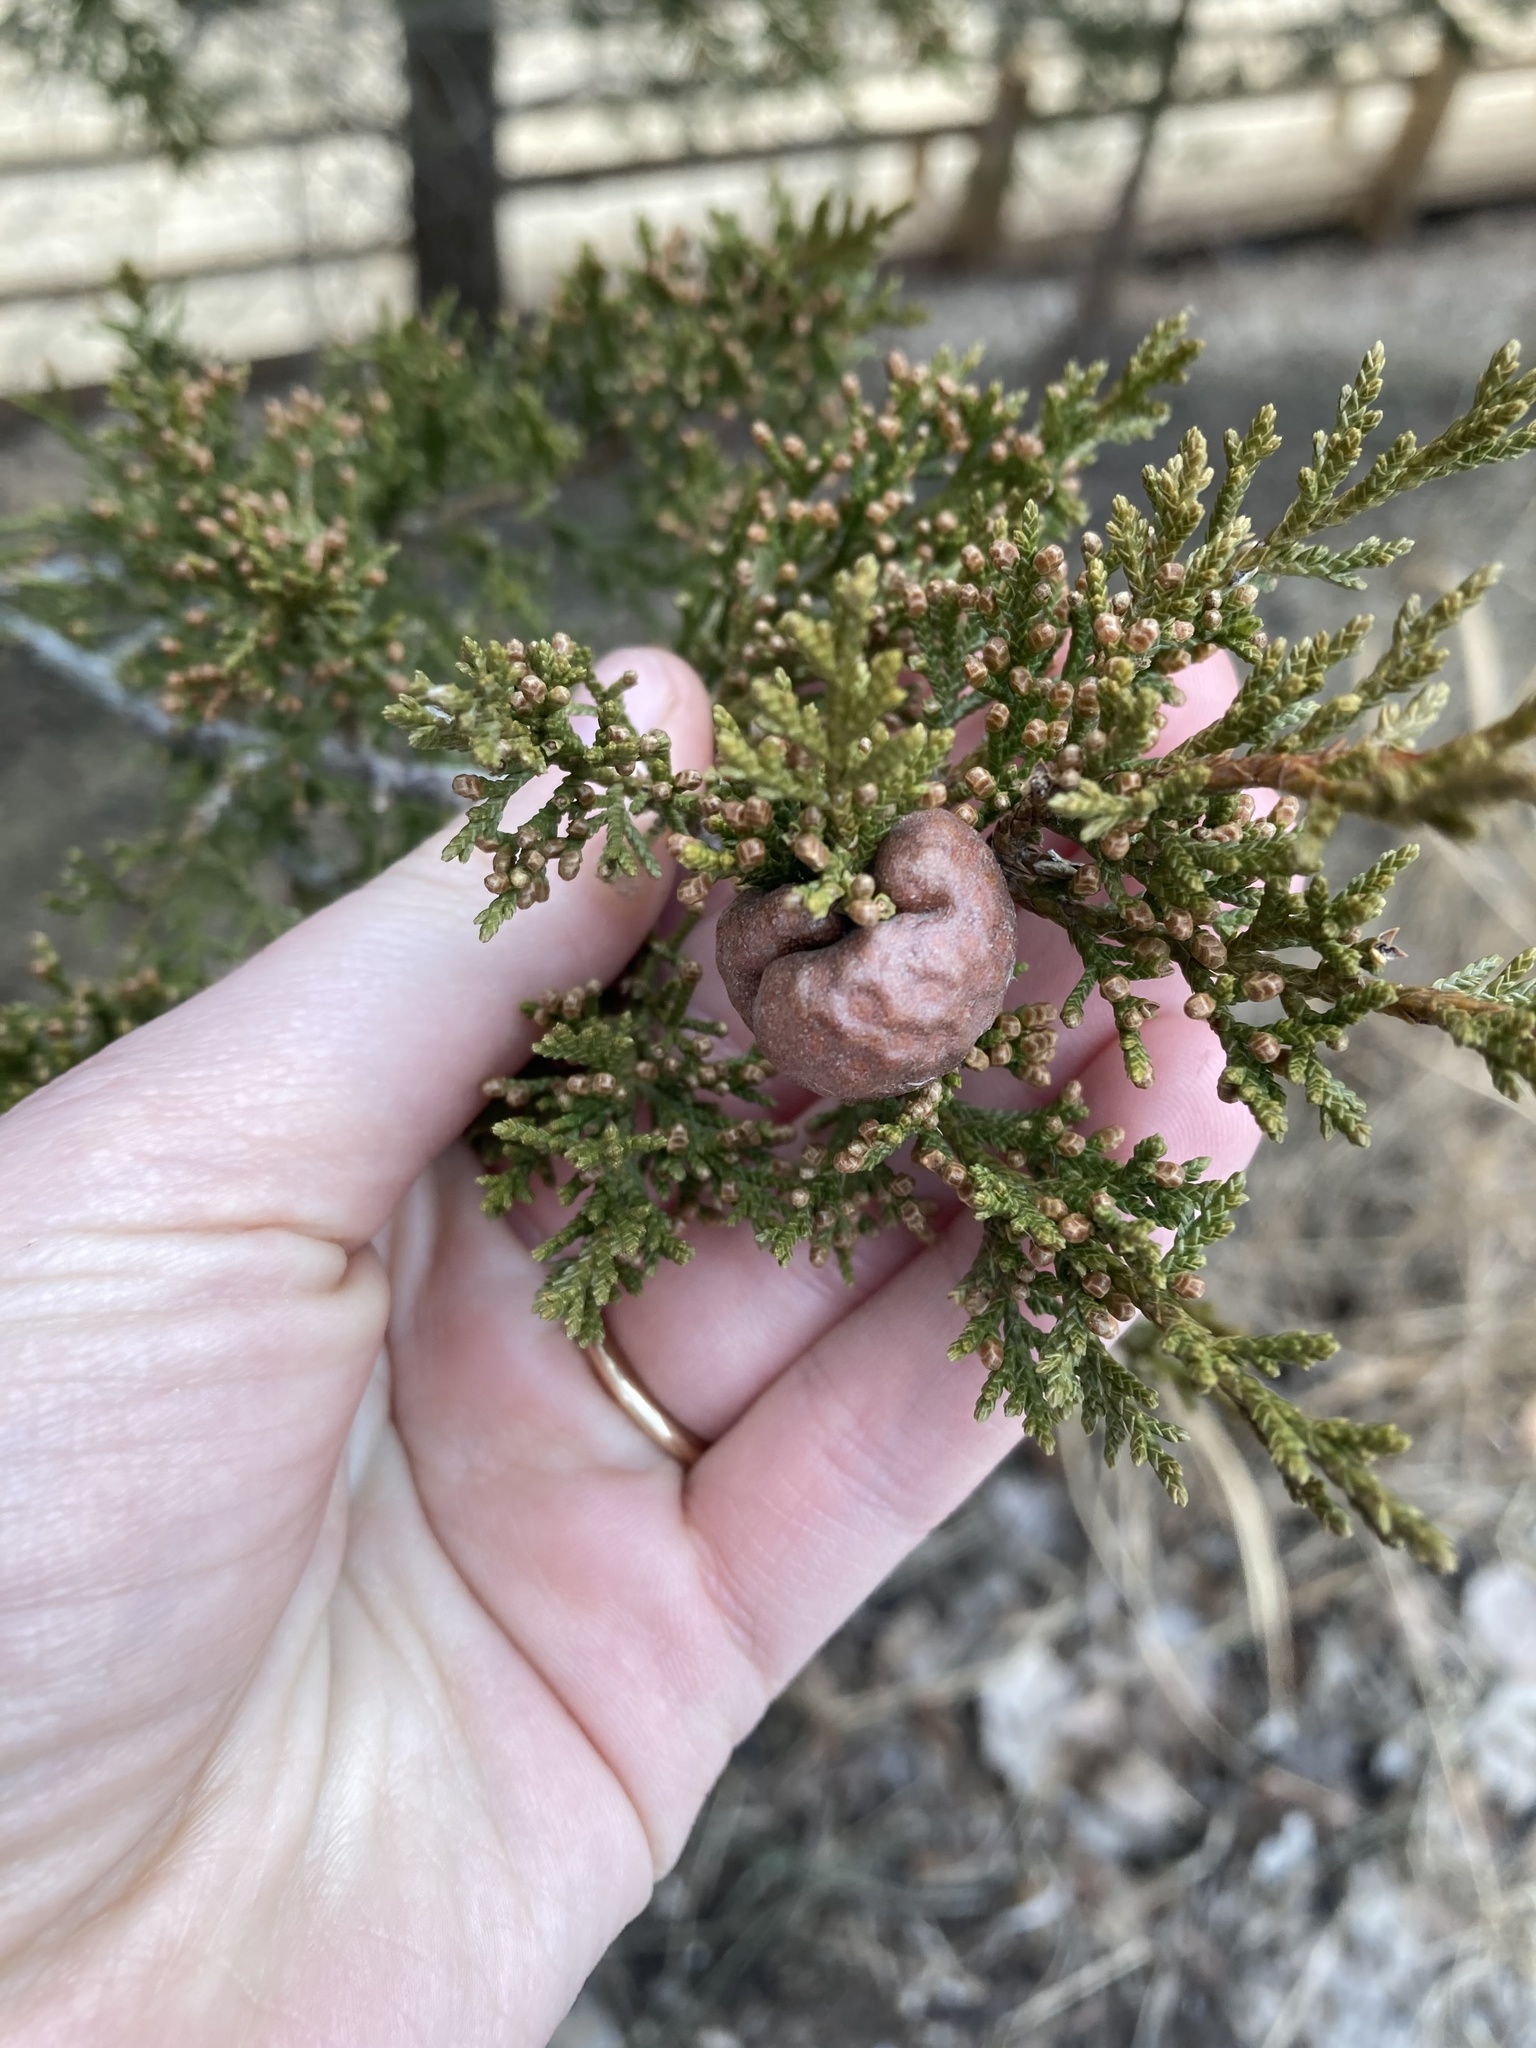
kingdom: Fungi
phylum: Basidiomycota
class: Pucciniomycetes
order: Pucciniales
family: Gymnosporangiaceae
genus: Gymnosporangium
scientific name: Gymnosporangium juniperi-virginianae
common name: Juniper-apple rust
